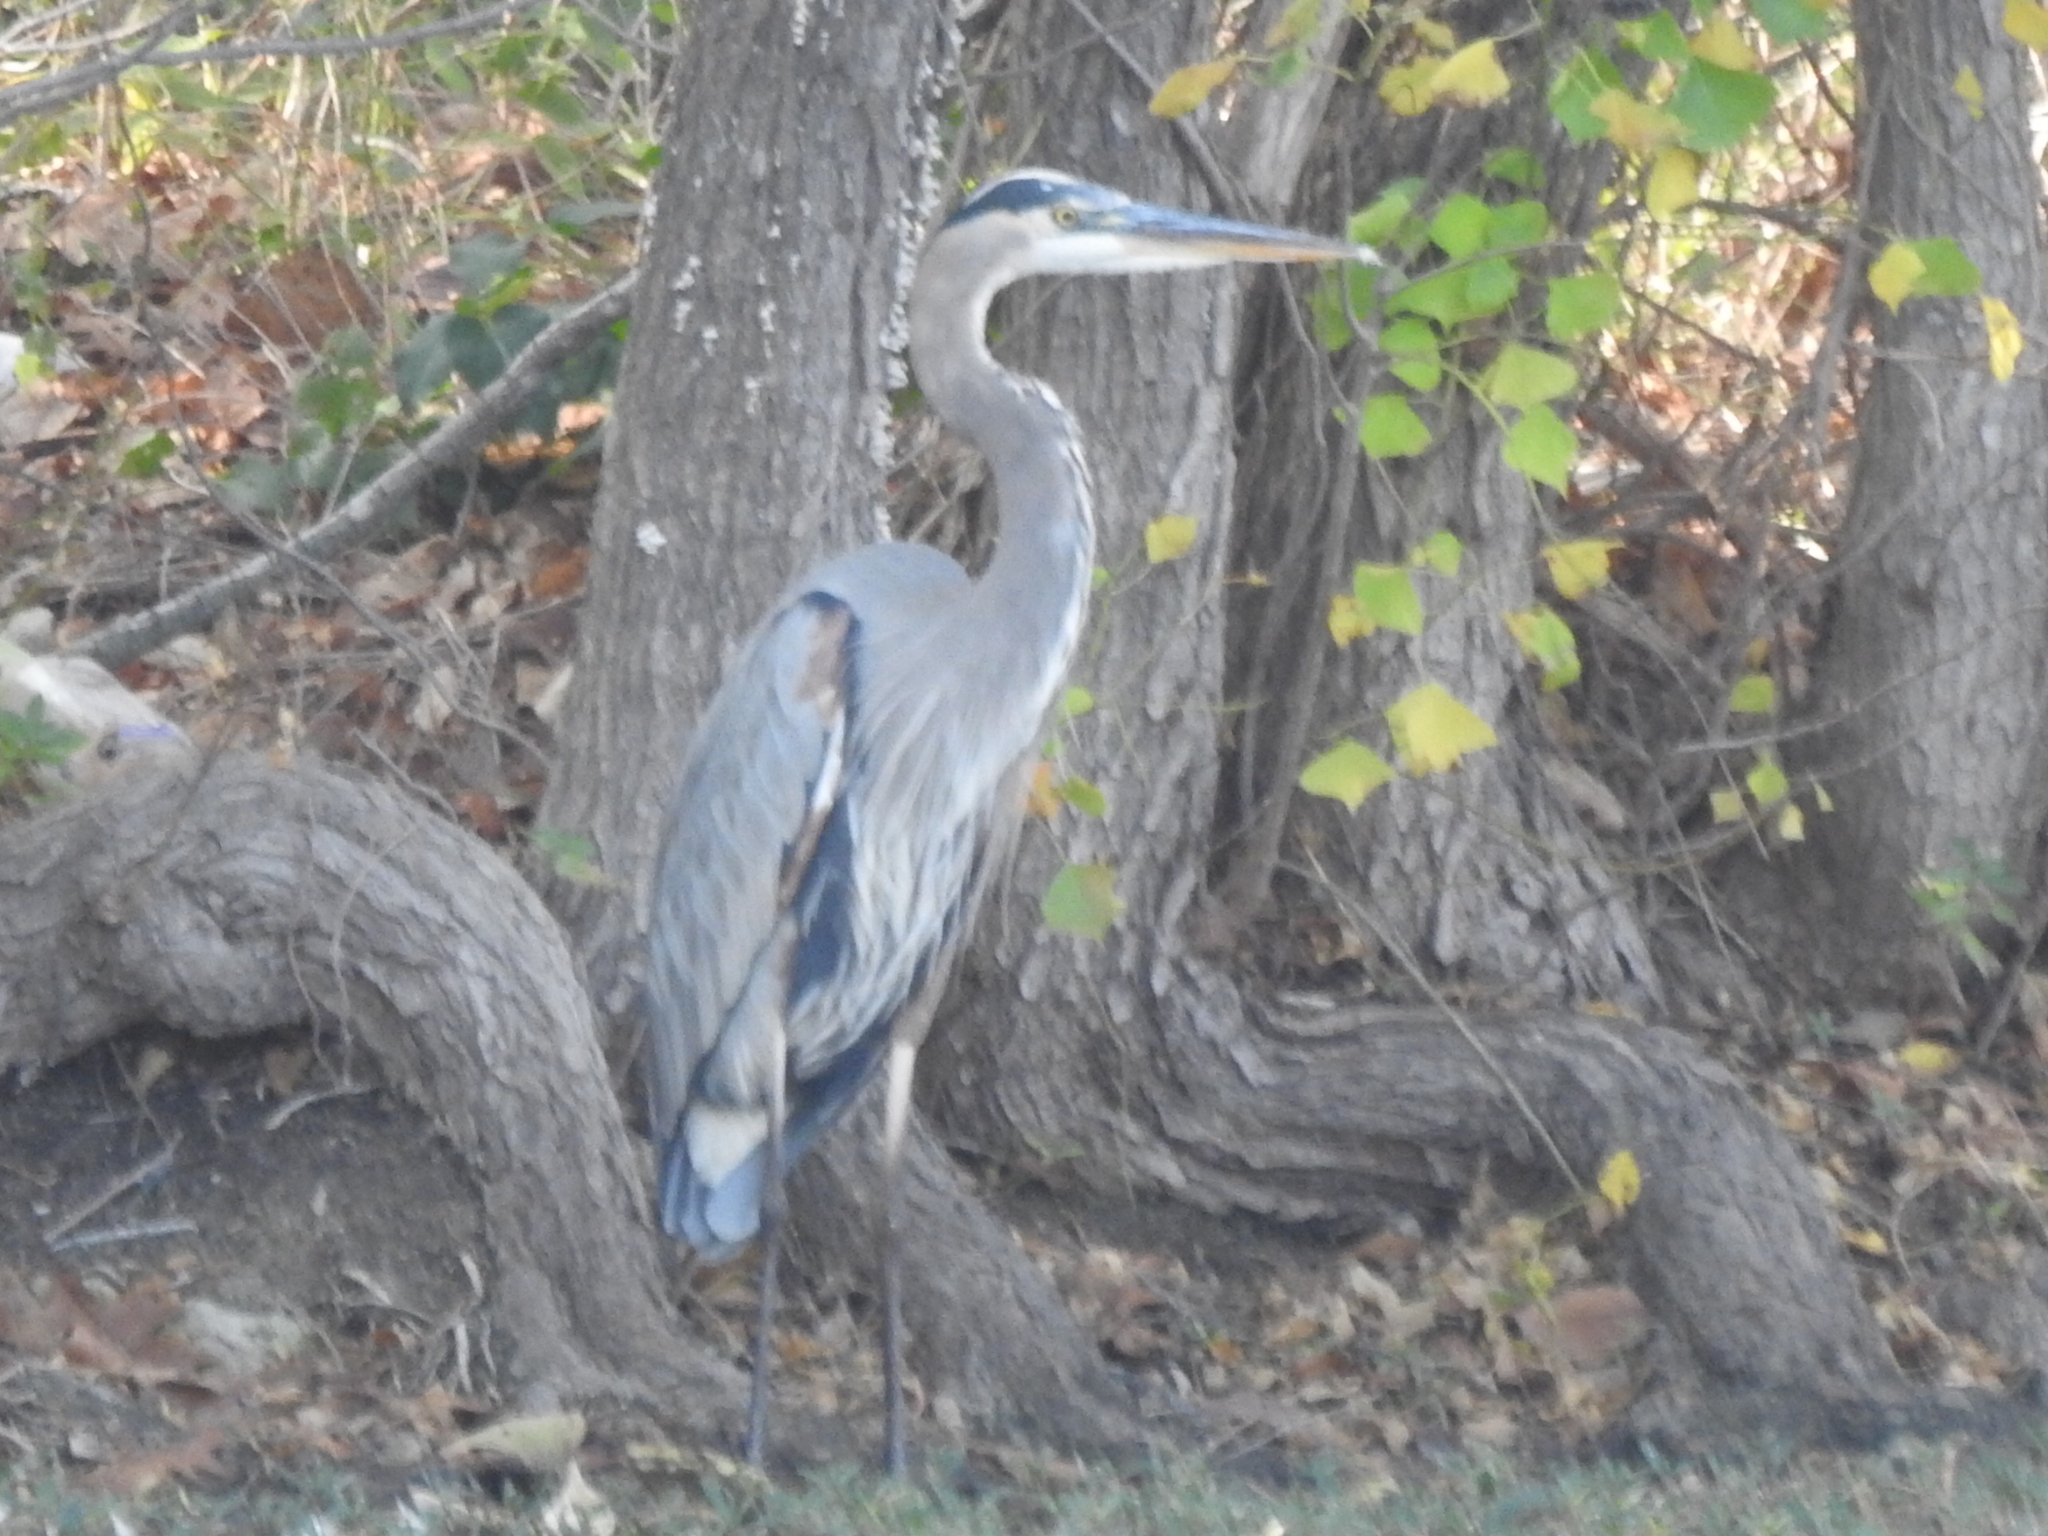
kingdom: Animalia
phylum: Chordata
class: Aves
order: Pelecaniformes
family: Ardeidae
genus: Ardea
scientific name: Ardea herodias
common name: Great blue heron
